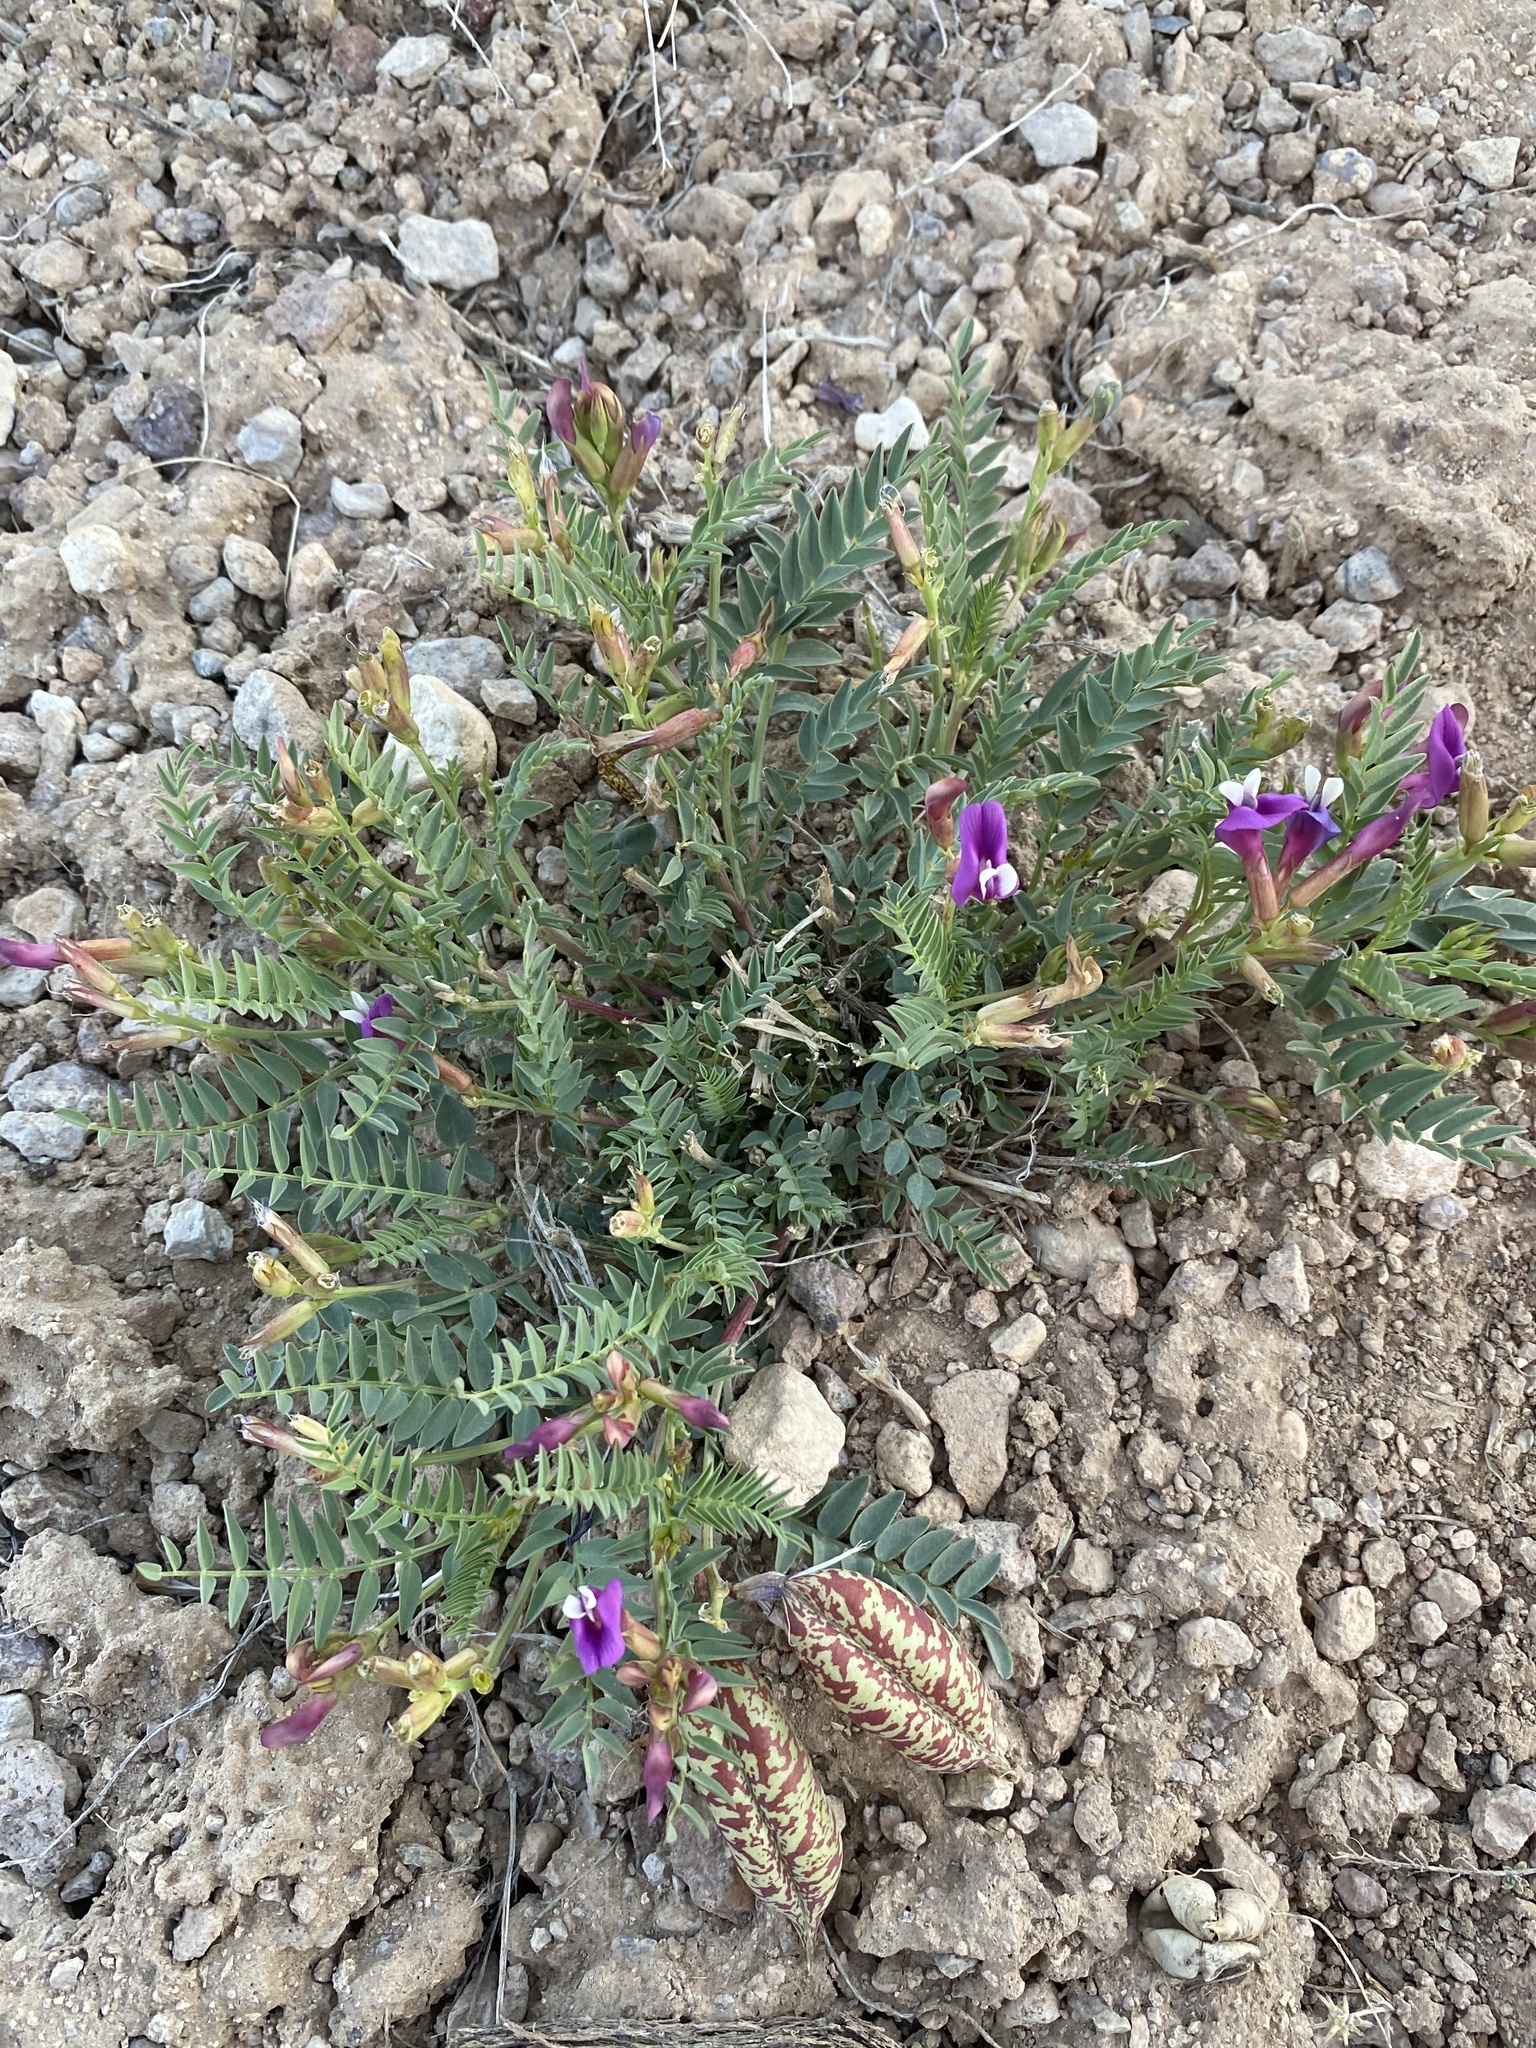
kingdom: Plantae
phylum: Tracheophyta
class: Magnoliopsida
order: Fabales
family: Fabaceae
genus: Astragalus
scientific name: Astragalus oophorus
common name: Egg milkvetch
